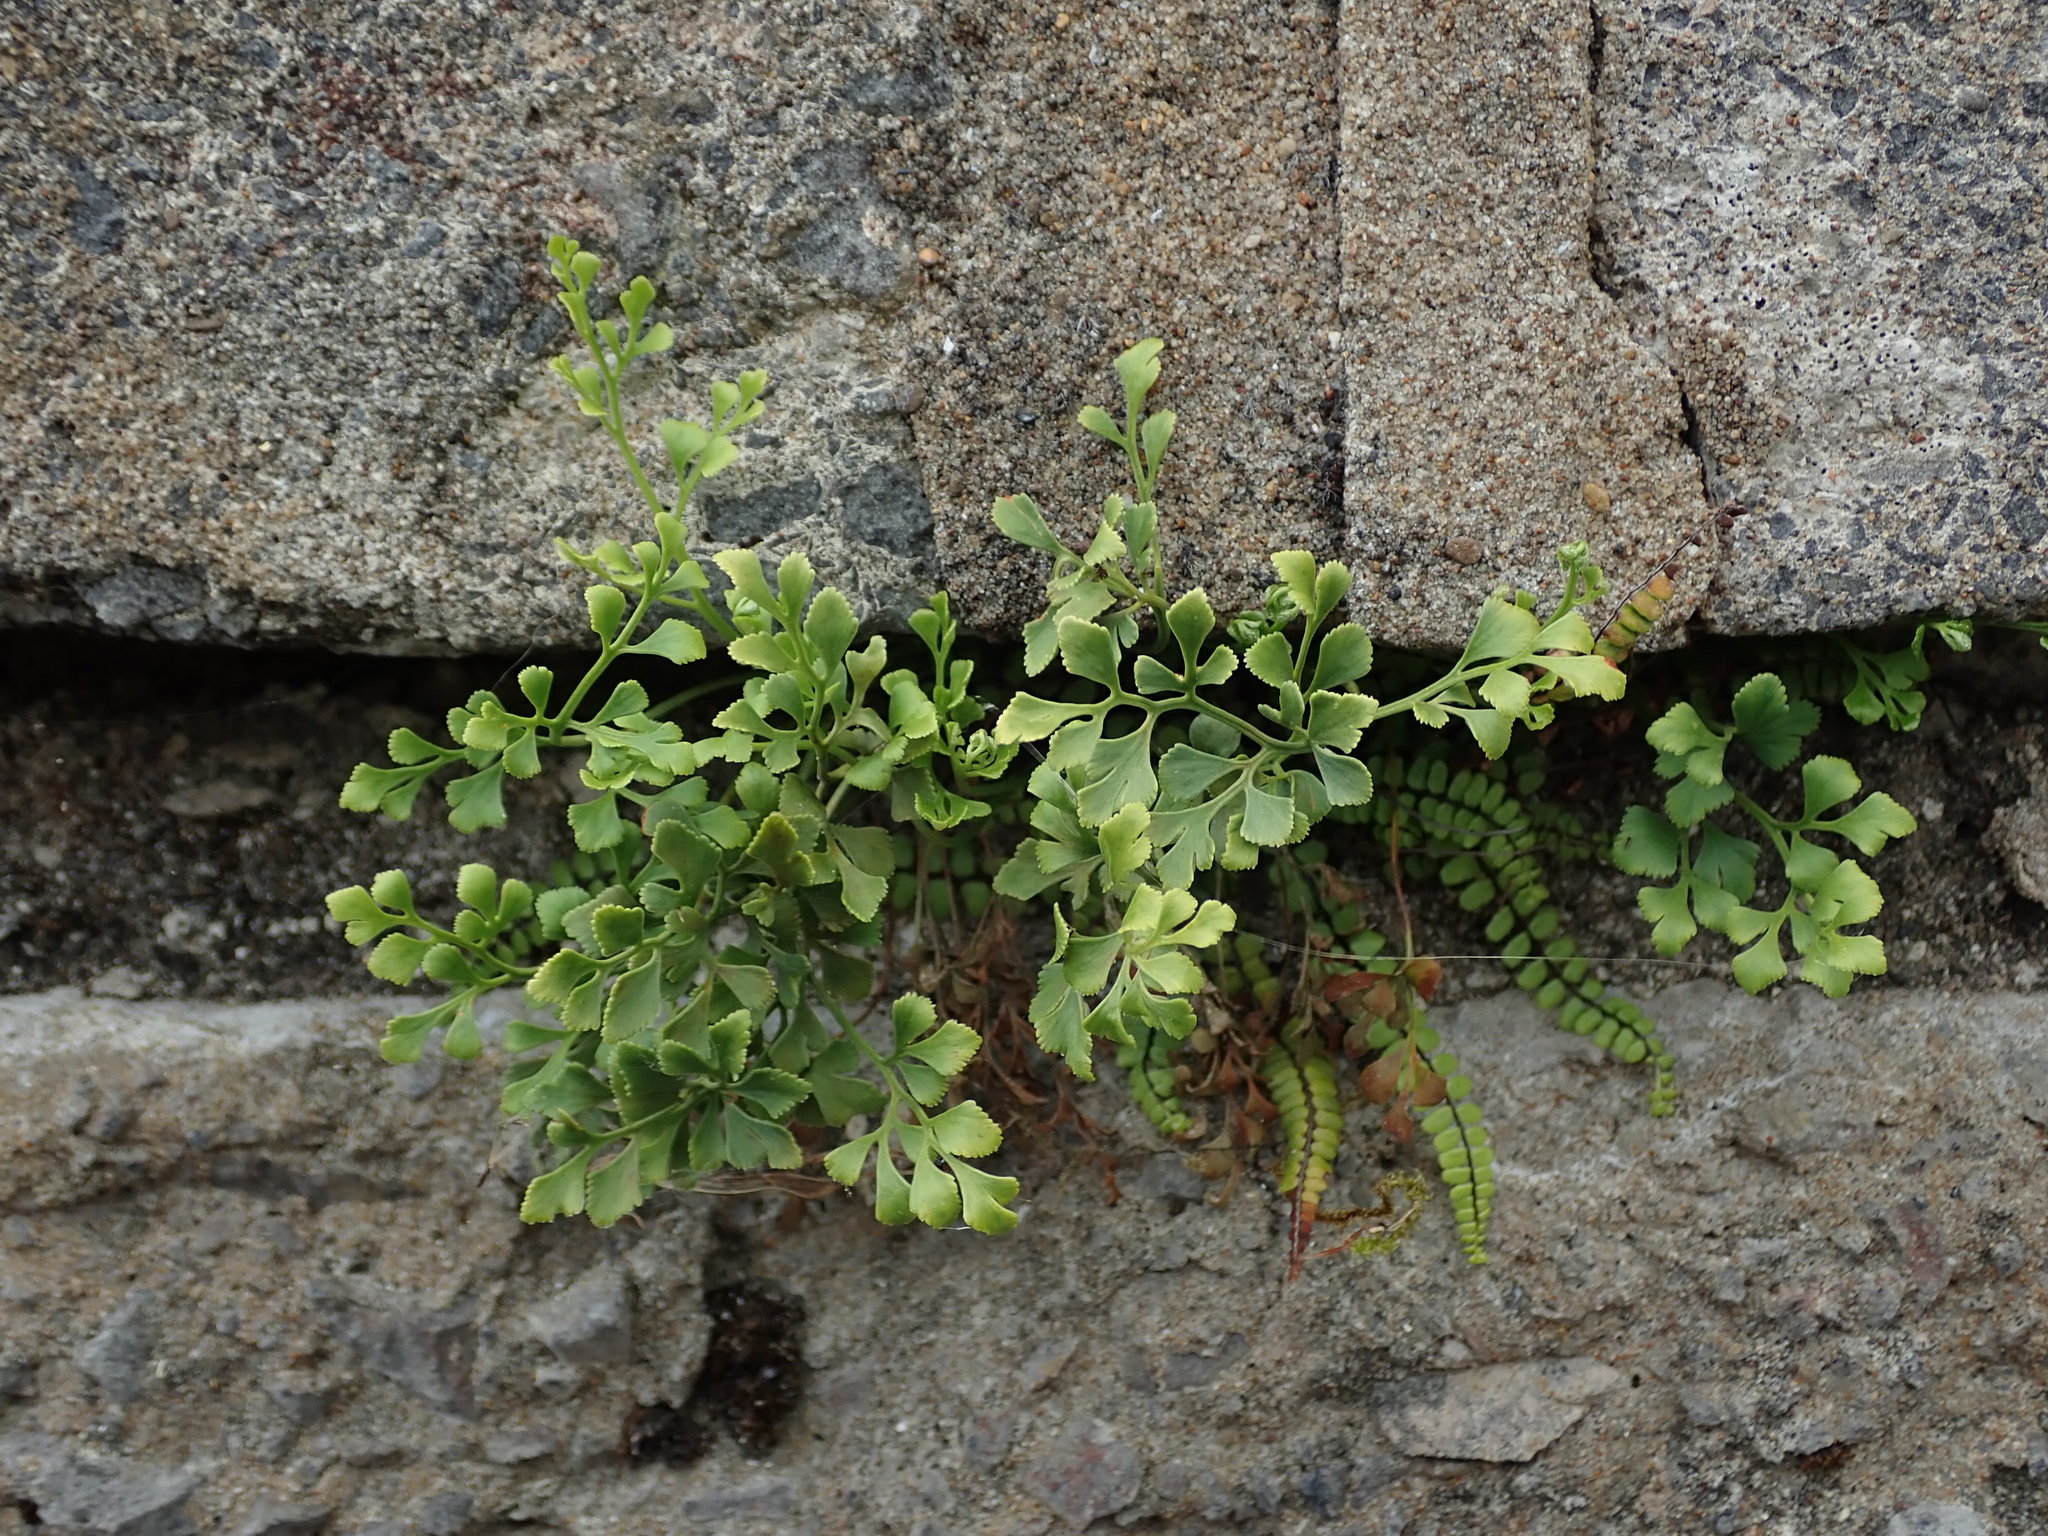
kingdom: Plantae
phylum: Tracheophyta
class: Polypodiopsida
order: Polypodiales
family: Aspleniaceae
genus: Asplenium
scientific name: Asplenium ruta-muraria
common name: Wall-rue
